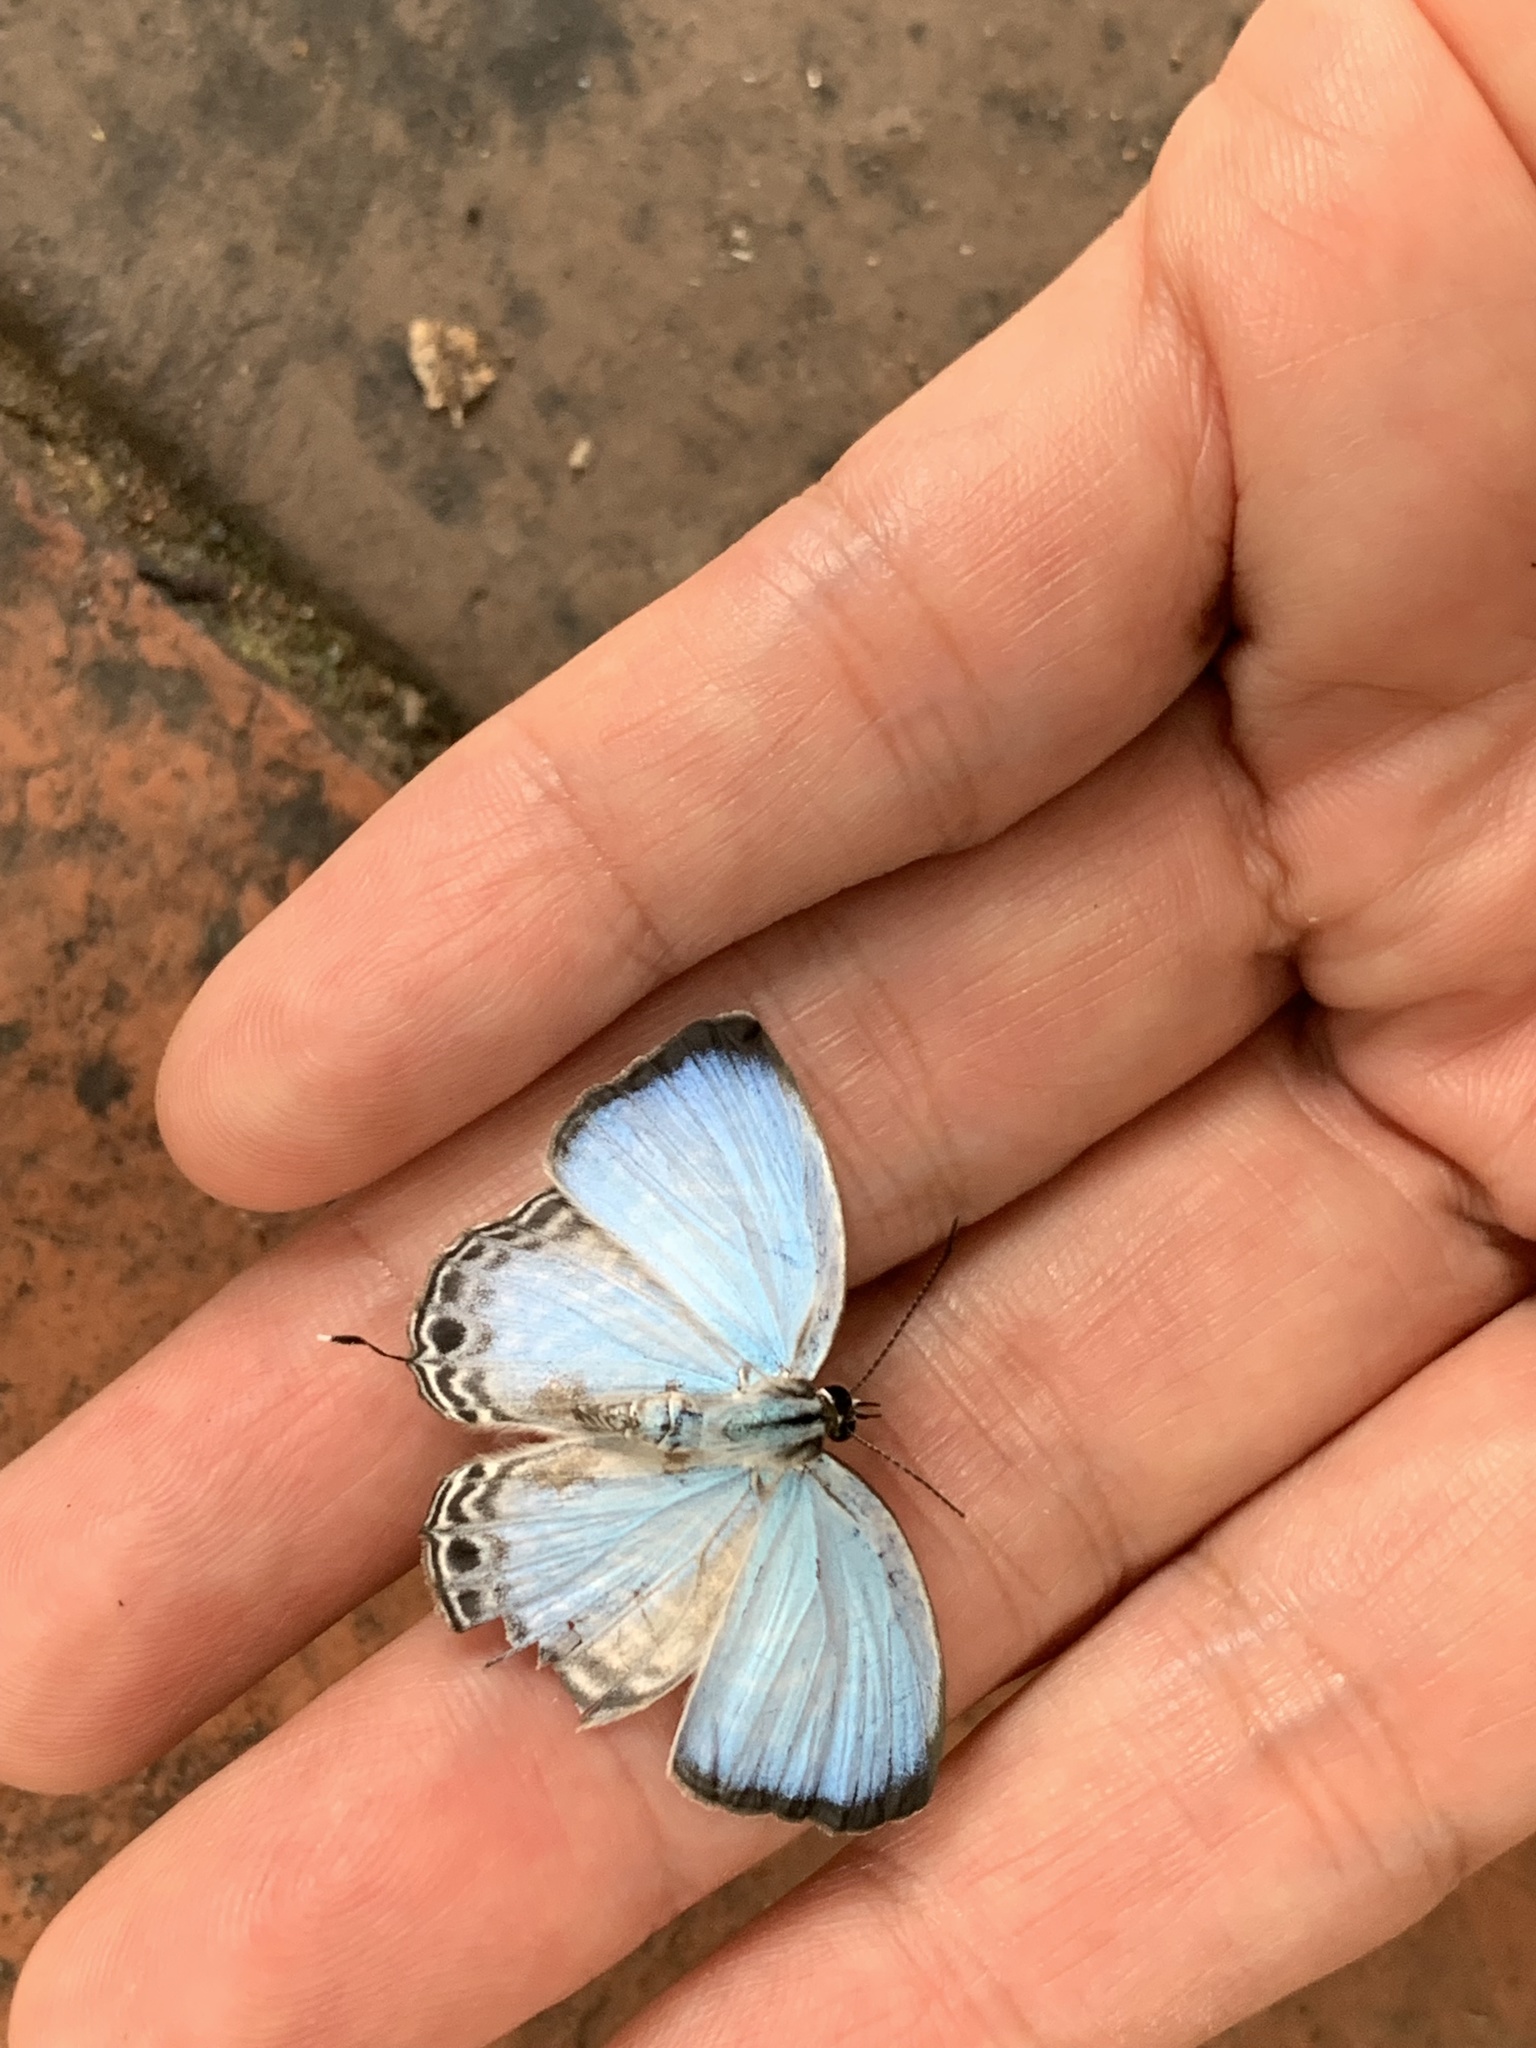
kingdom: Animalia
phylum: Arthropoda
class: Insecta
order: Lepidoptera
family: Lycaenidae
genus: Jamides
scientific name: Jamides alecto
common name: Metallic cerulean
